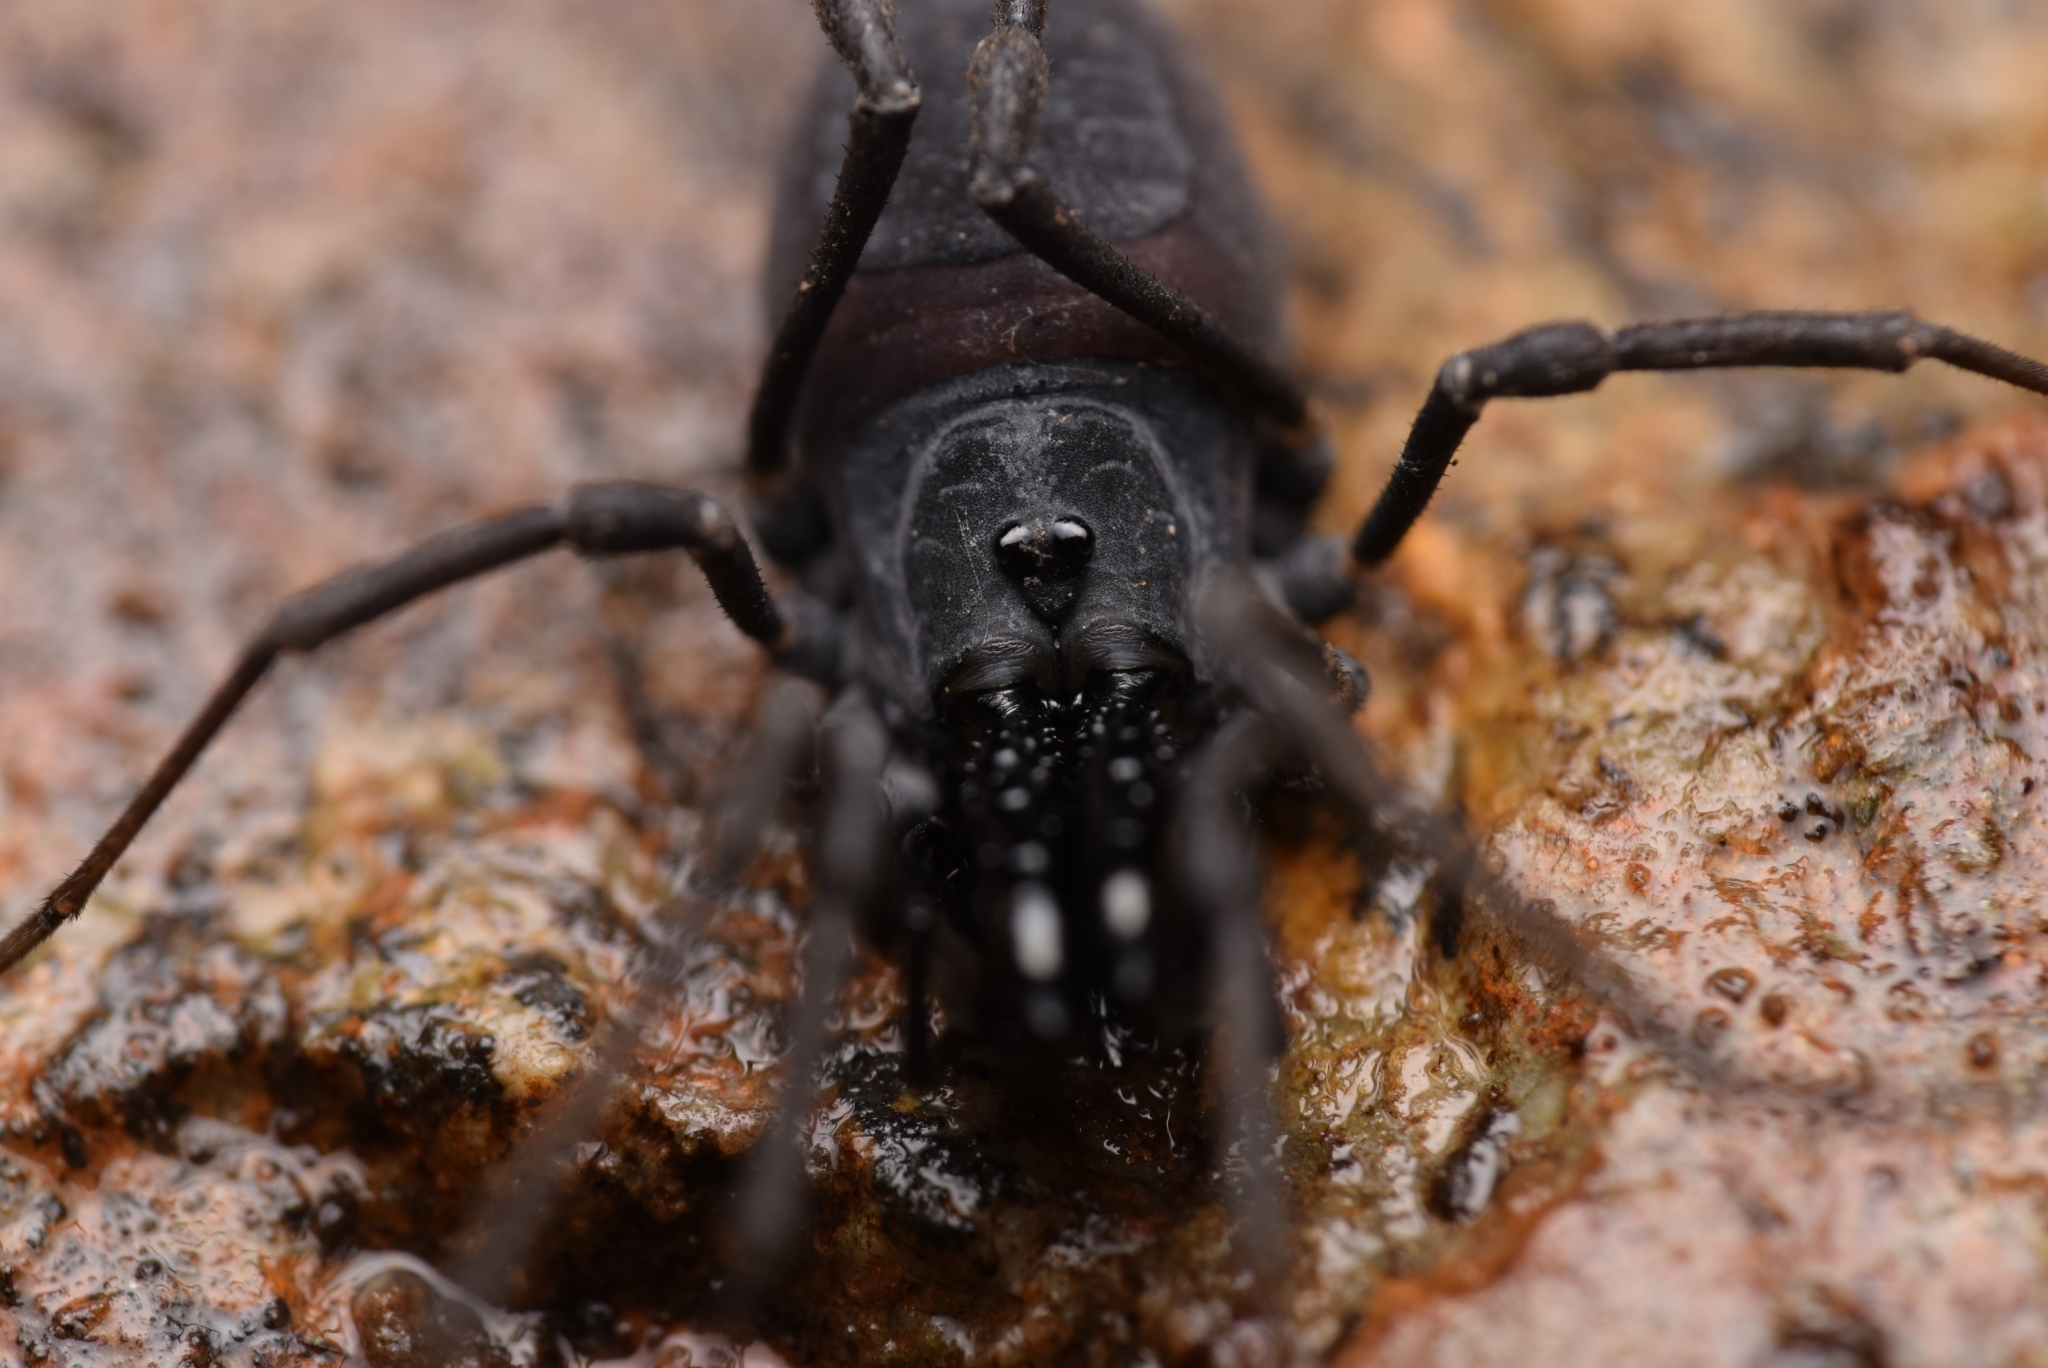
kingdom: Animalia
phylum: Arthropoda
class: Arachnida
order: Opiliones
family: Ischyropsalididae
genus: Ischyropsalis
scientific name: Ischyropsalis luteipes
